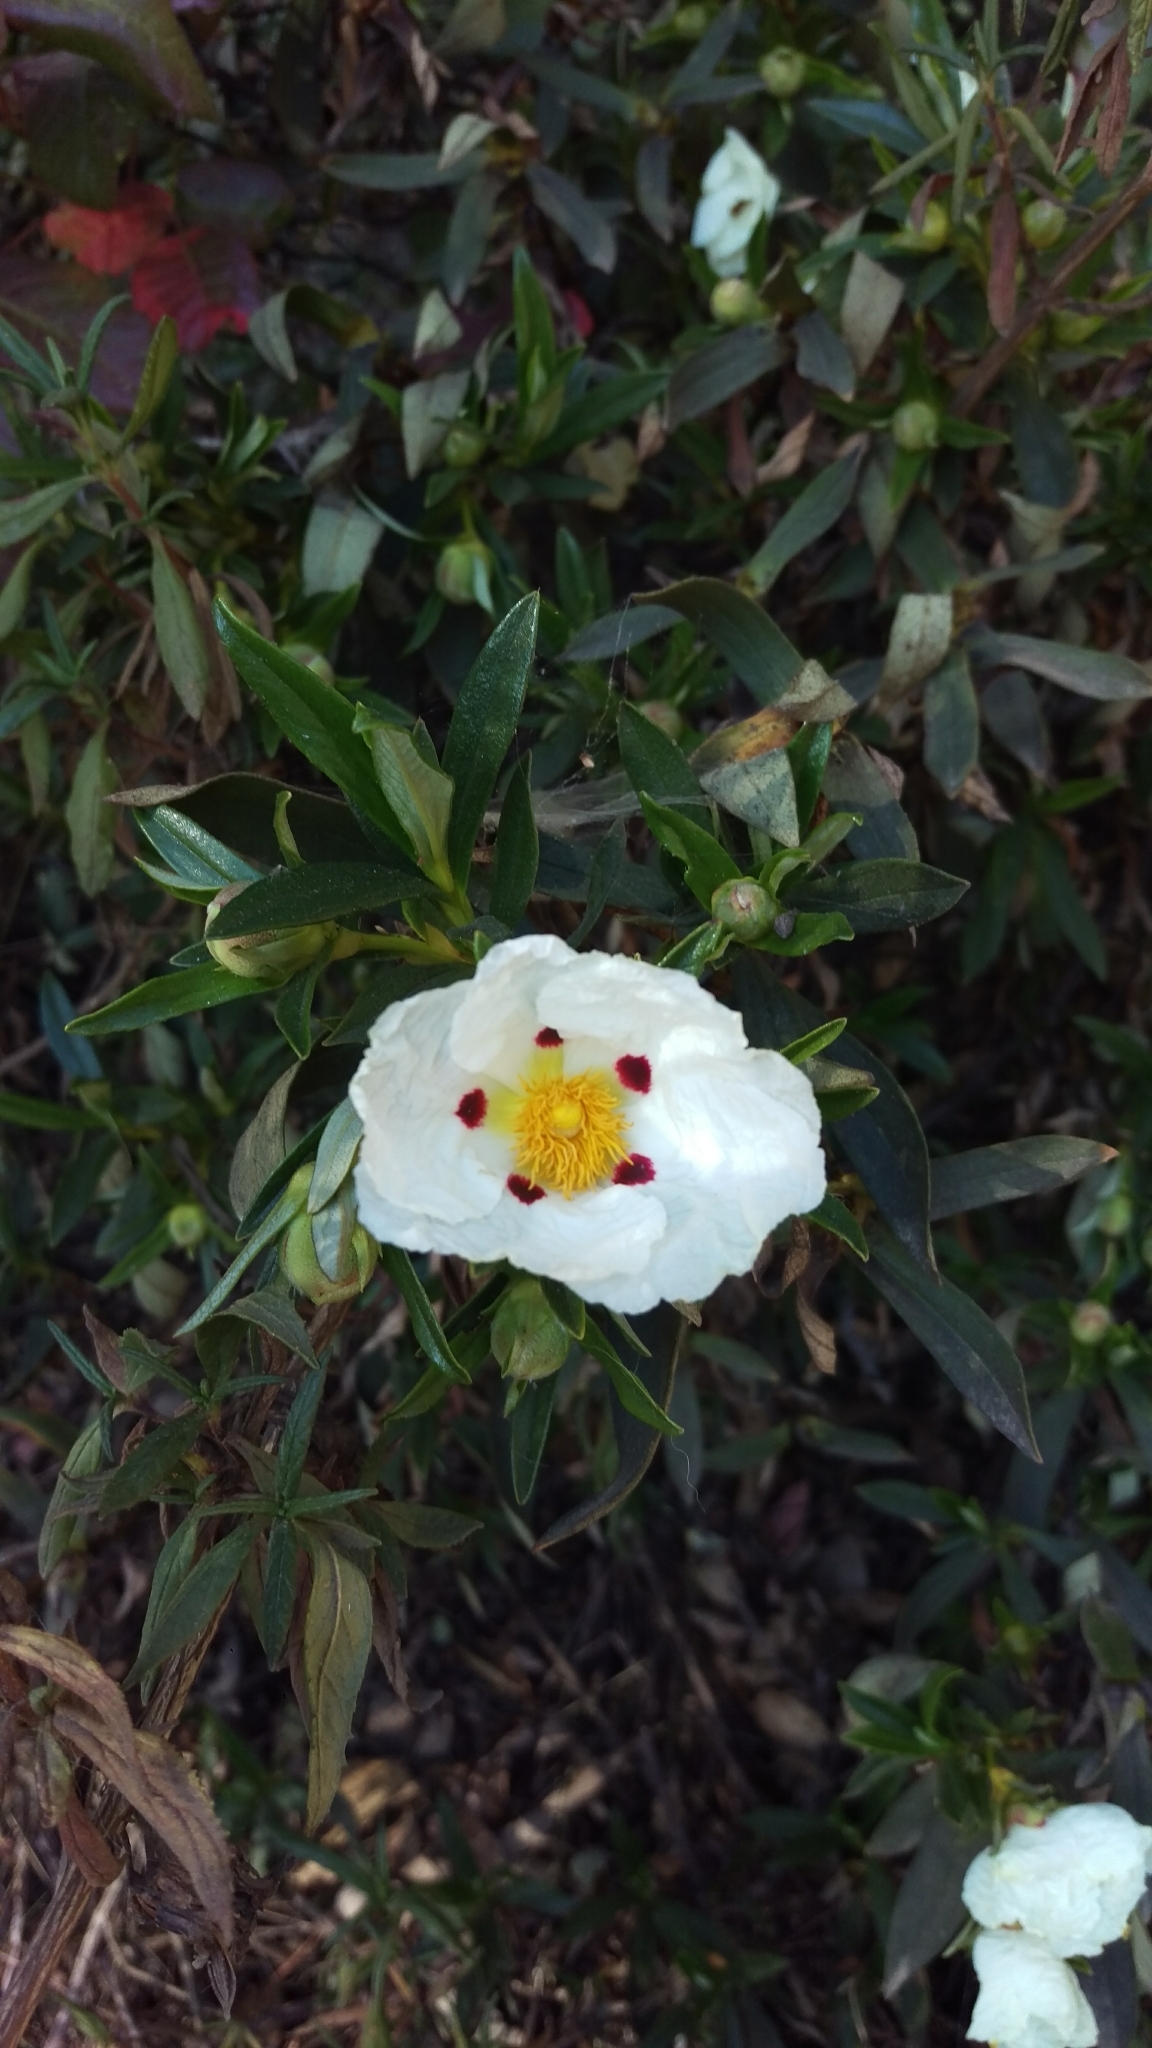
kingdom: Plantae
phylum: Tracheophyta
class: Magnoliopsida
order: Malvales
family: Cistaceae
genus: Cistus
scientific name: Cistus ladanifer
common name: Common gum cistus
